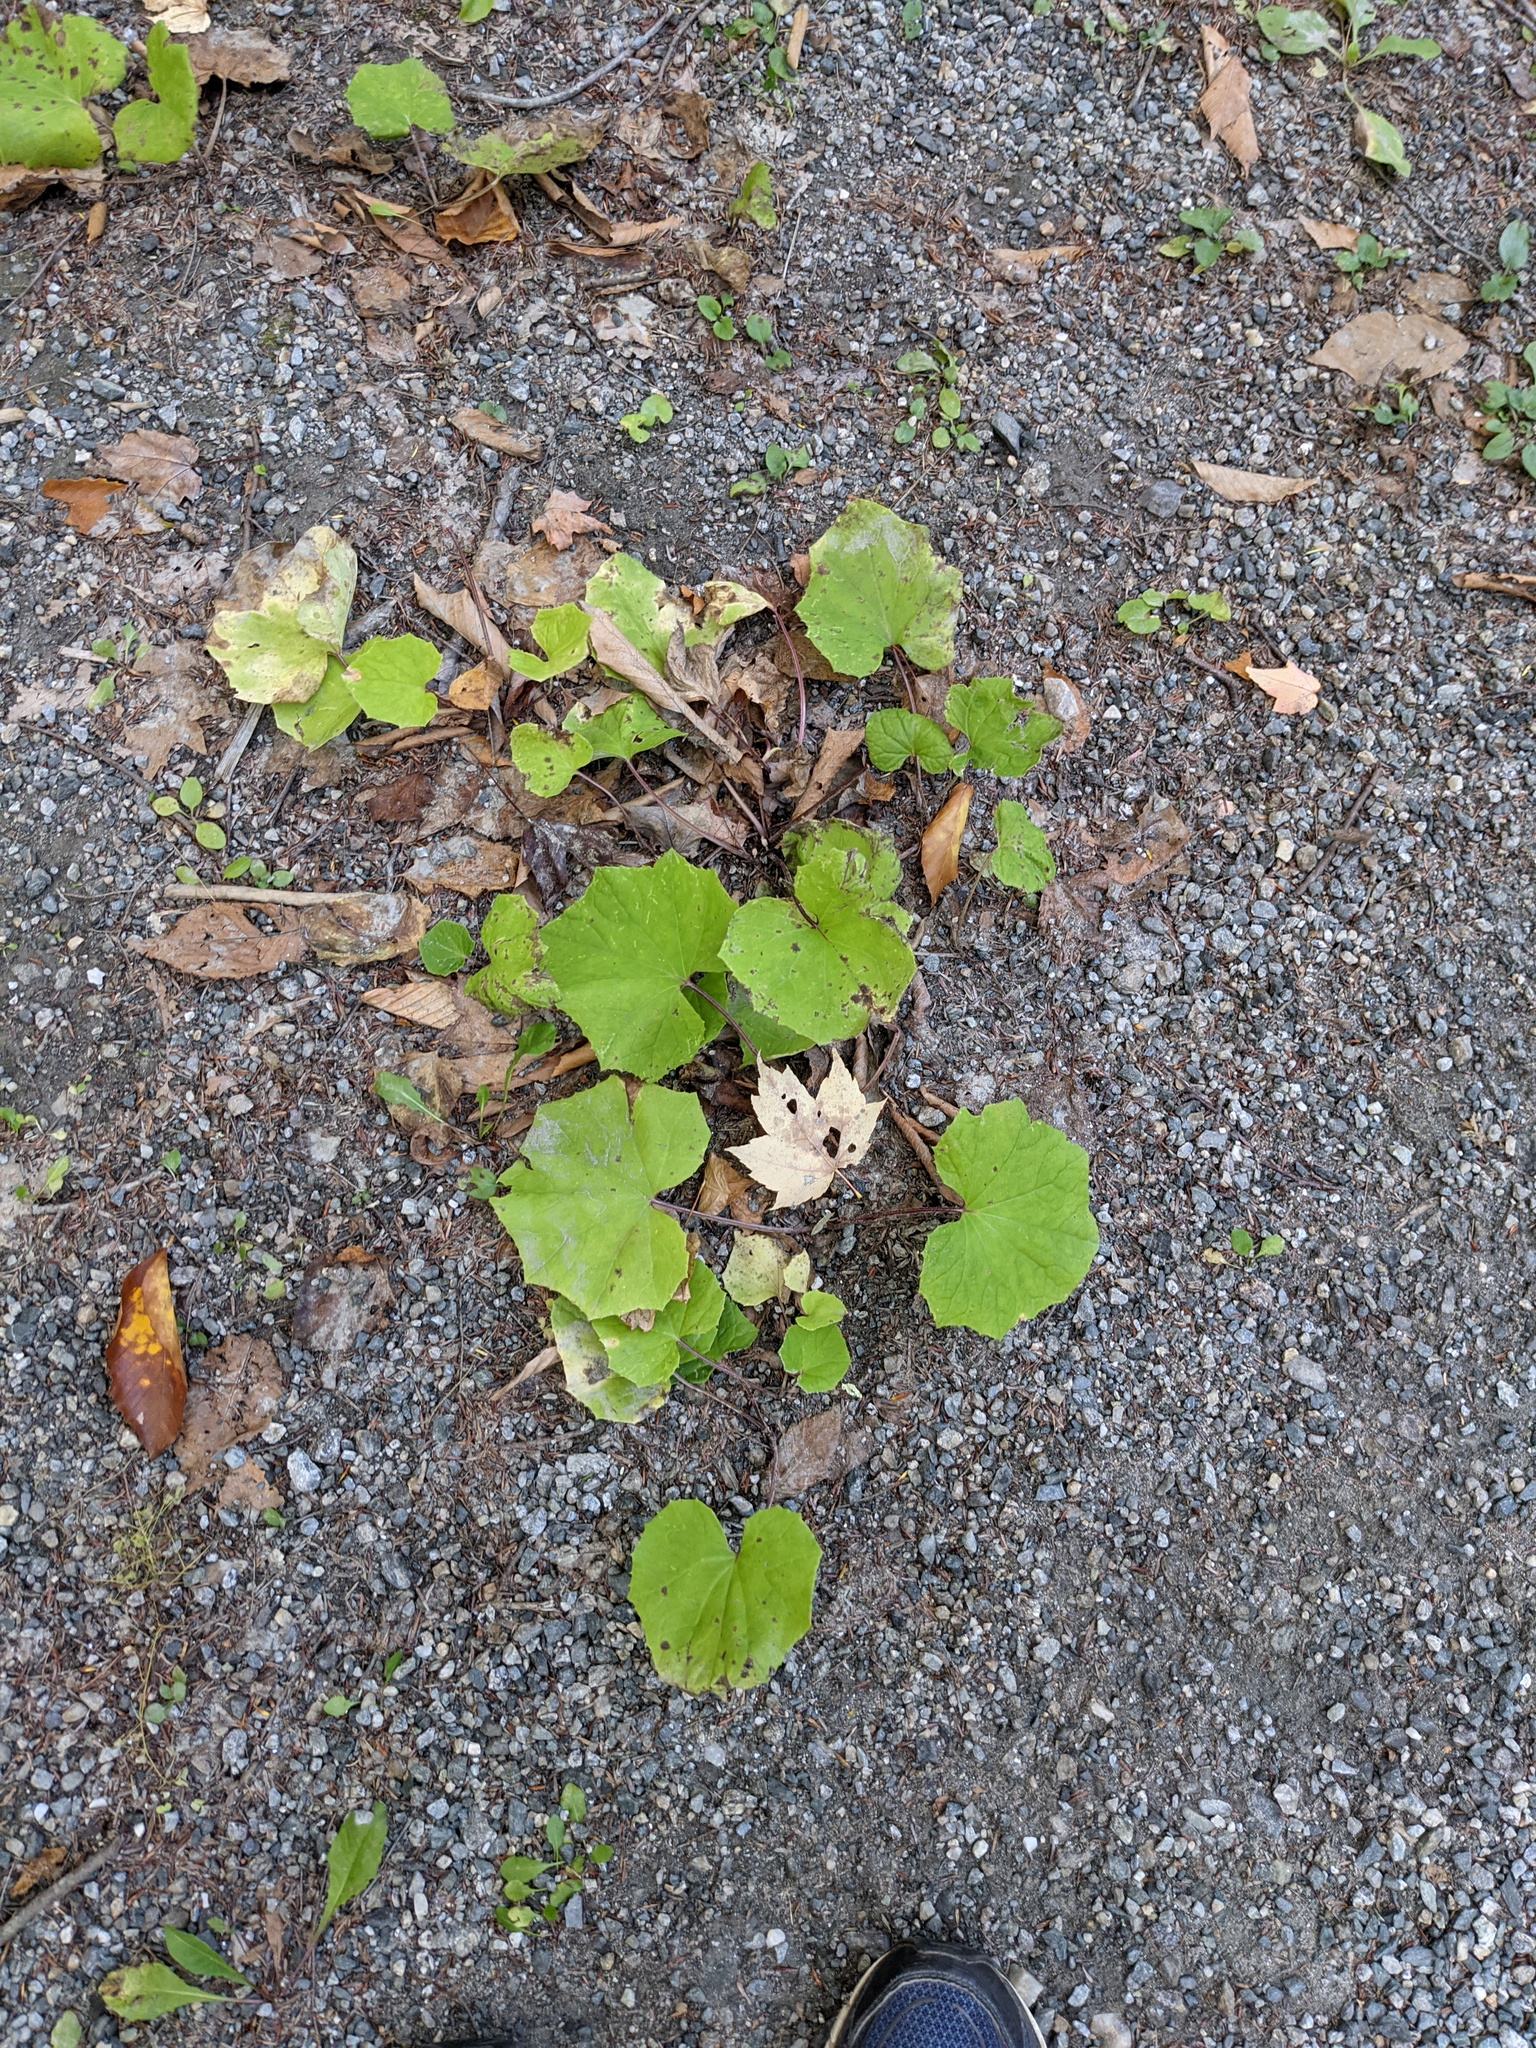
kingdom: Plantae
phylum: Tracheophyta
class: Magnoliopsida
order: Asterales
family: Asteraceae
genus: Tussilago
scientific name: Tussilago farfara
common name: Coltsfoot
